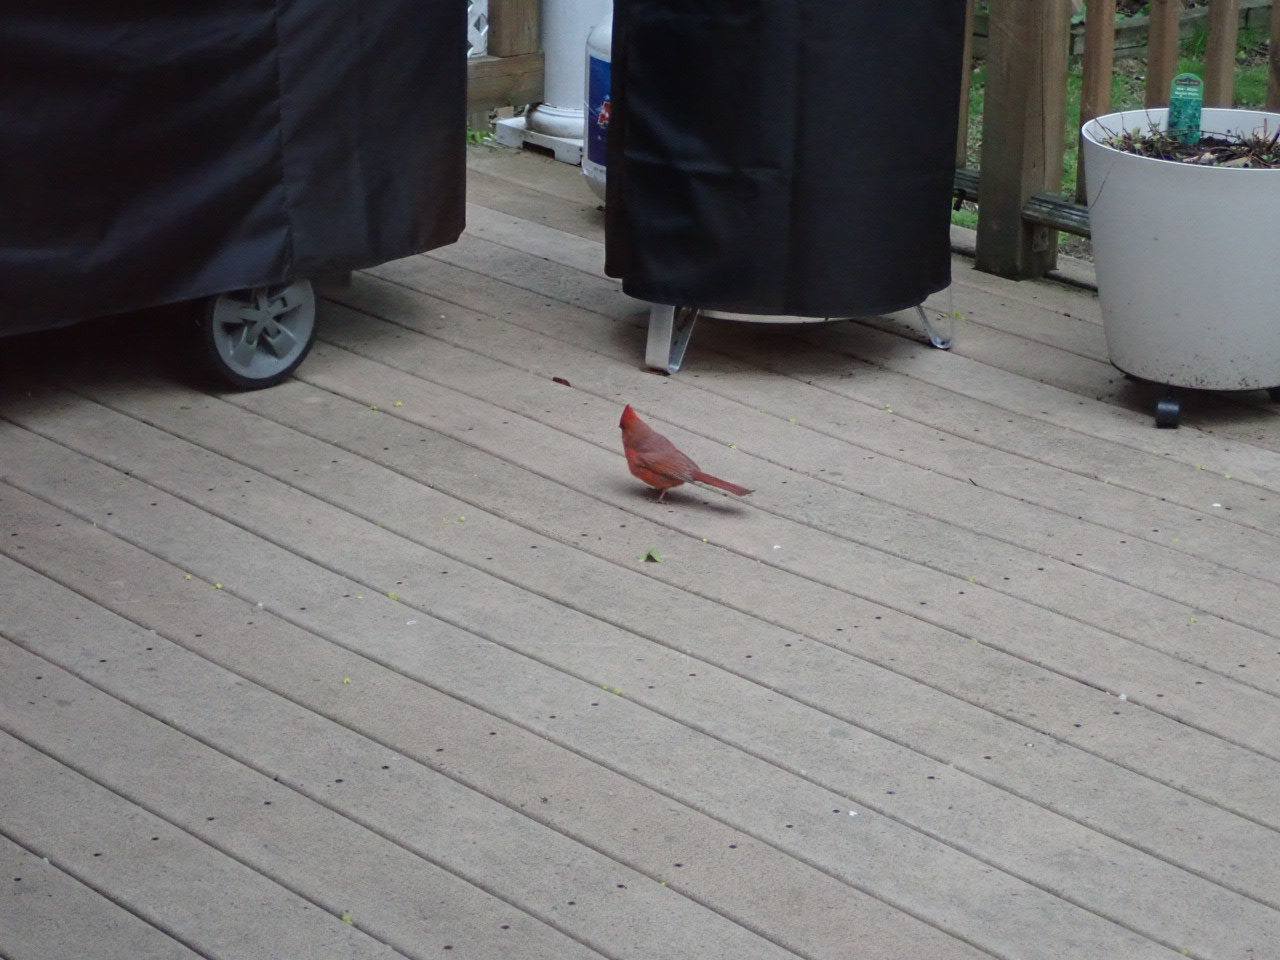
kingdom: Animalia
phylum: Chordata
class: Aves
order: Passeriformes
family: Cardinalidae
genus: Cardinalis
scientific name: Cardinalis cardinalis
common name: Northern cardinal
